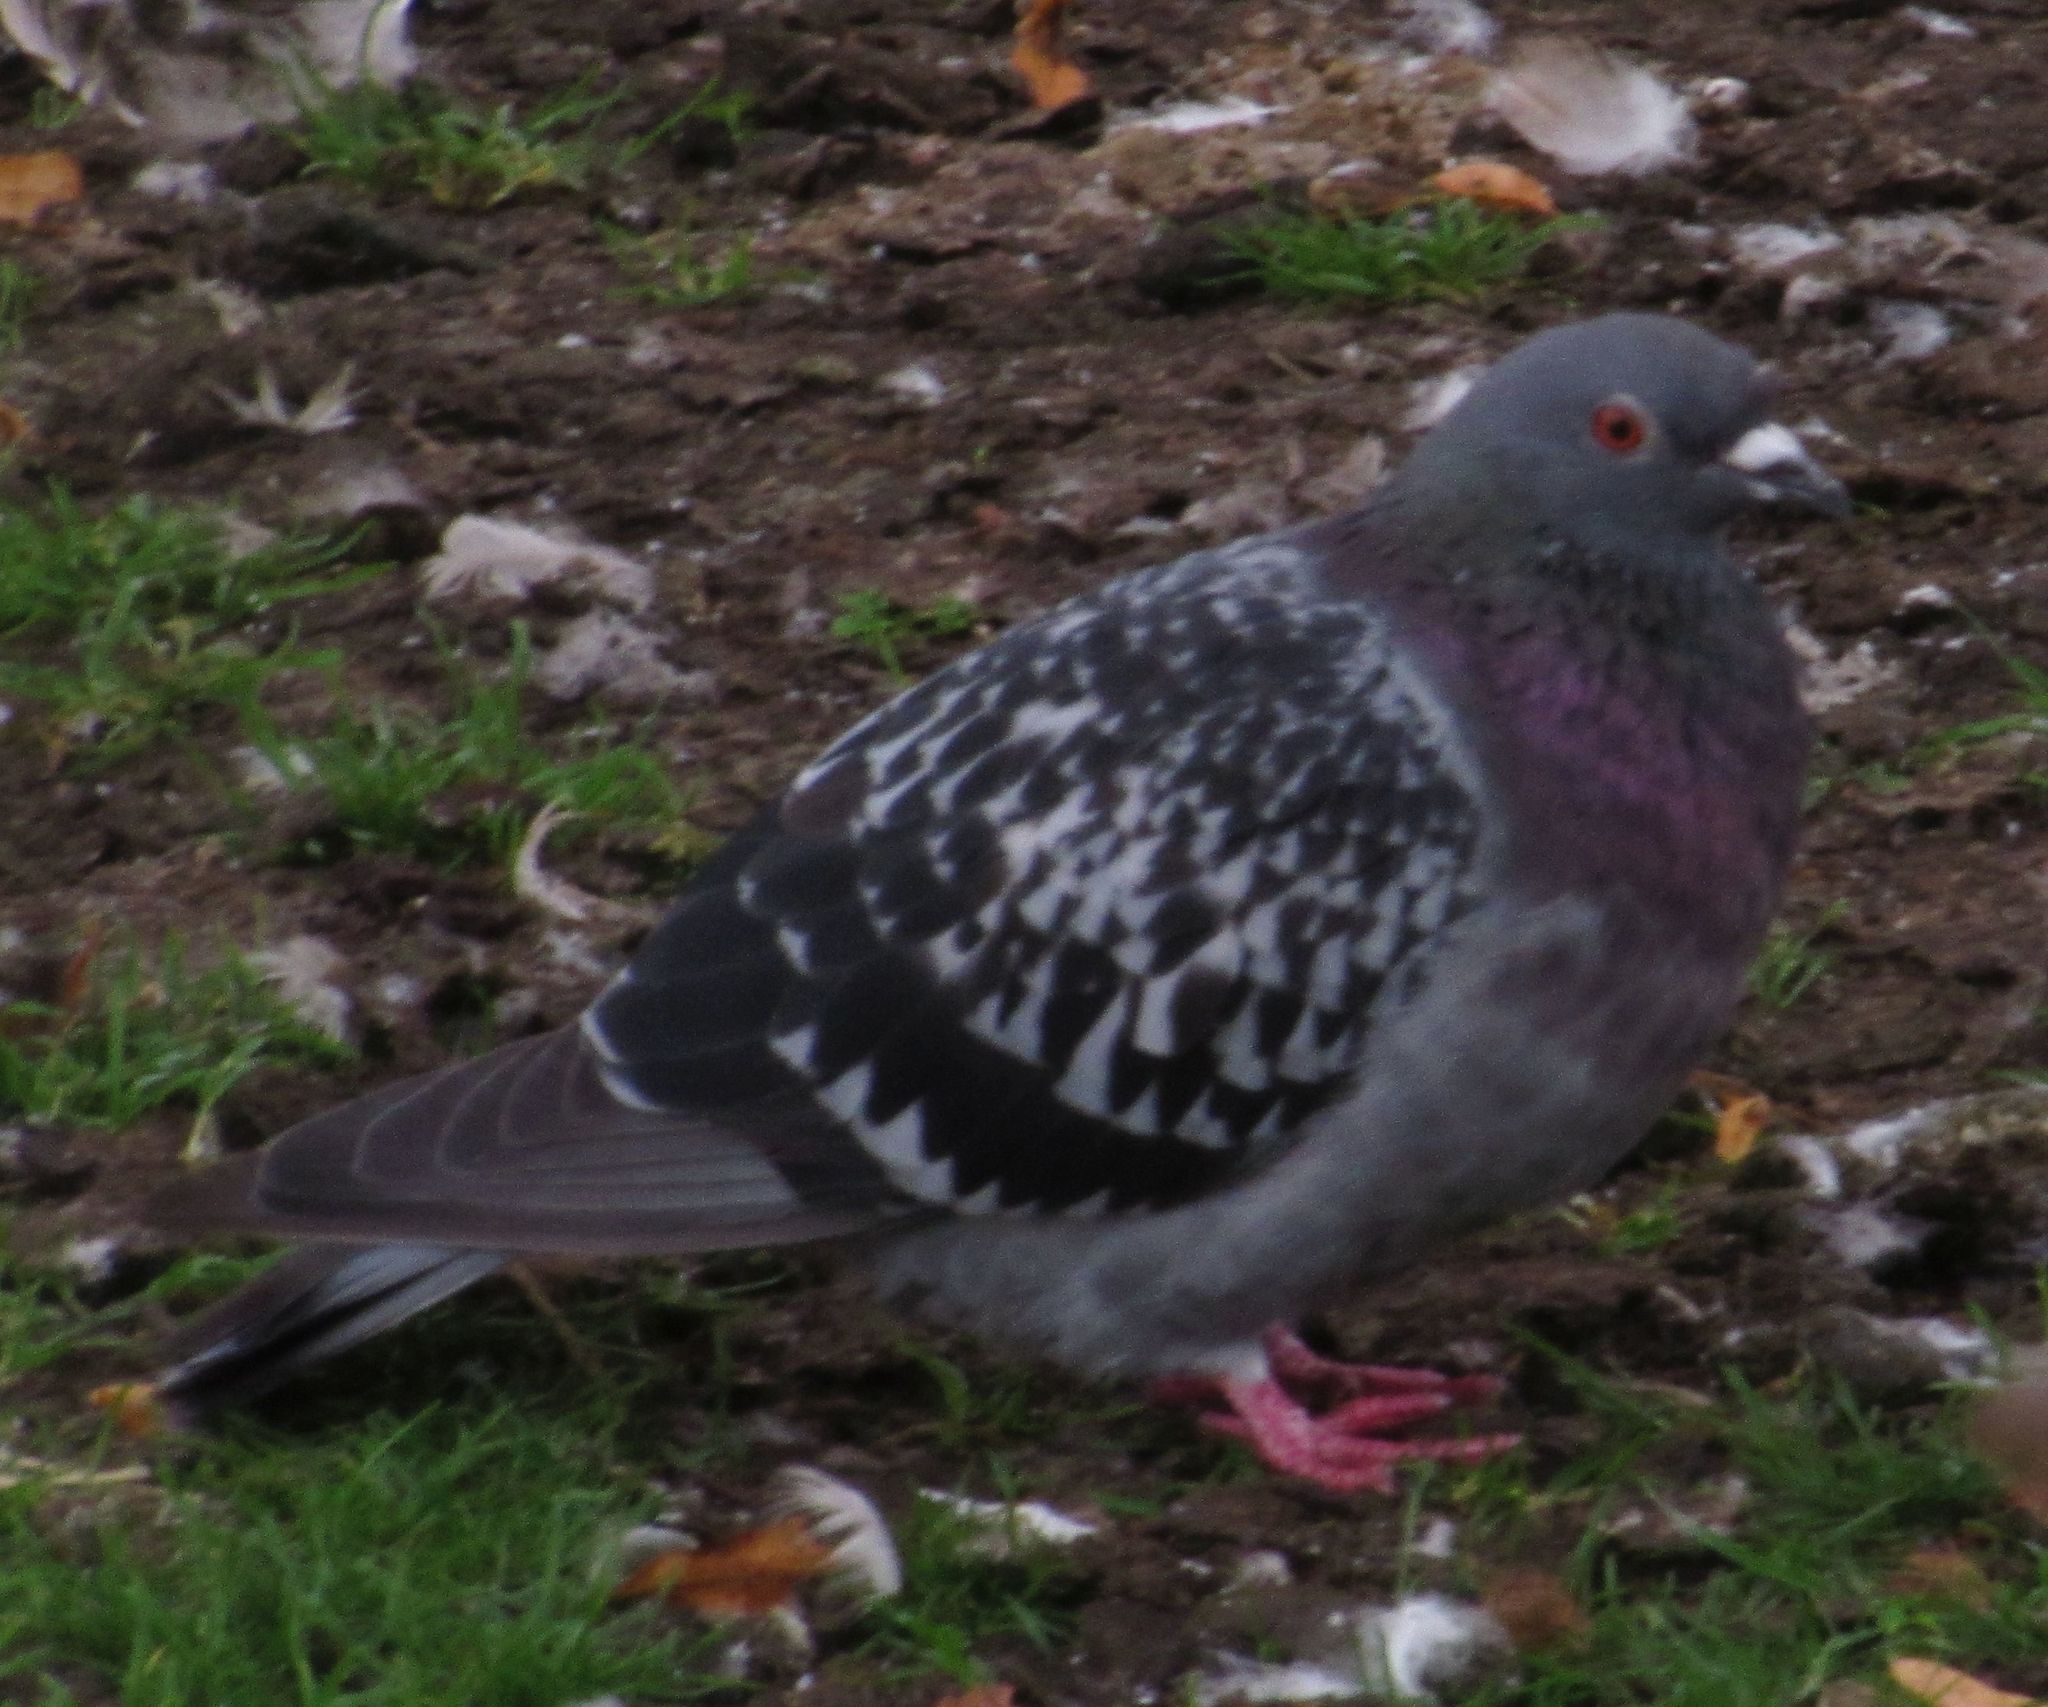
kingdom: Animalia
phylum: Chordata
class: Aves
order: Columbiformes
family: Columbidae
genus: Columba
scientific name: Columba livia
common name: Rock pigeon
